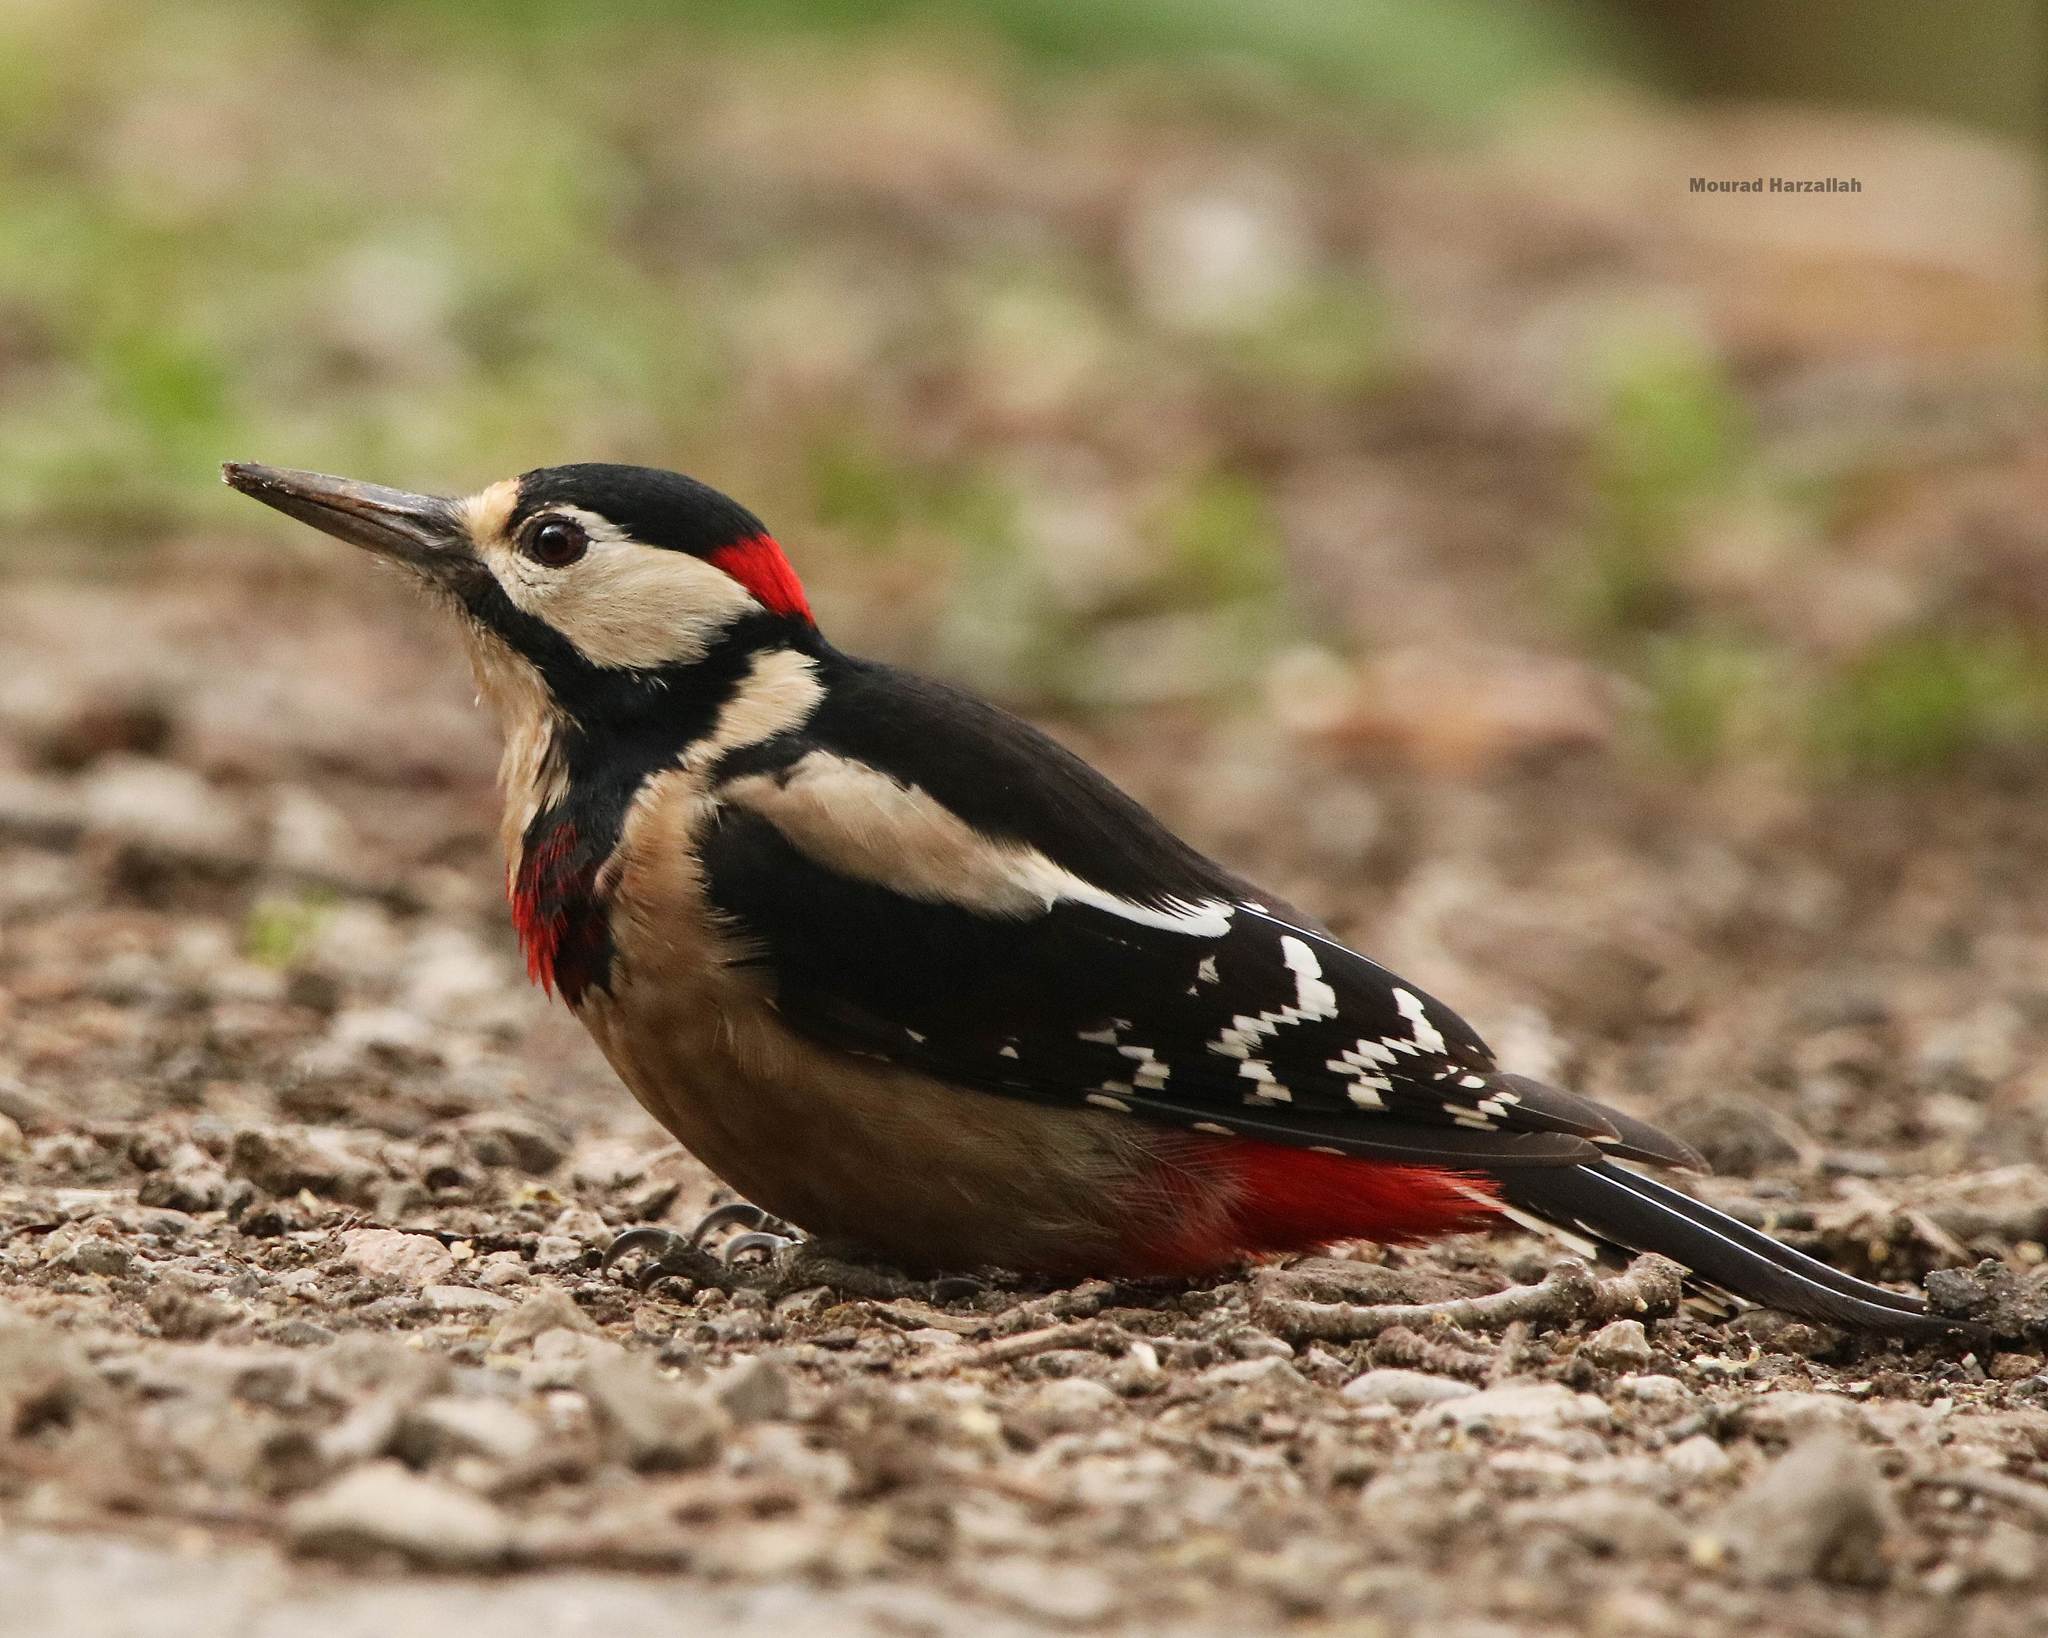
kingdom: Animalia
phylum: Chordata
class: Aves
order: Piciformes
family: Picidae
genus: Dendrocopos
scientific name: Dendrocopos major
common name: Great spotted woodpecker
